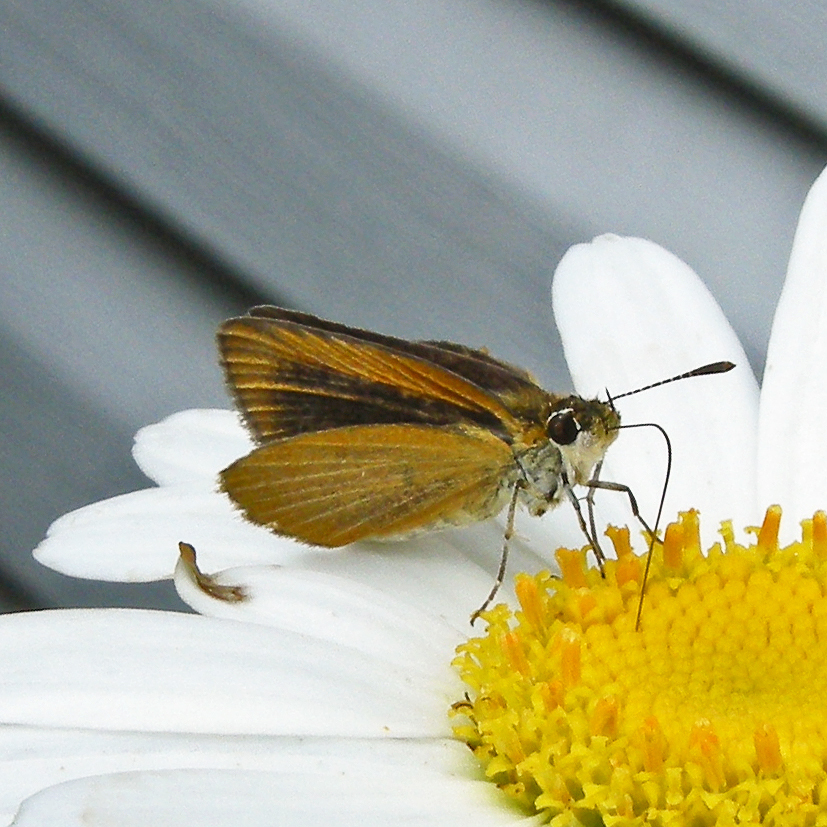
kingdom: Animalia
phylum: Arthropoda
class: Insecta
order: Lepidoptera
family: Hesperiidae
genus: Ancyloxypha
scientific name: Ancyloxypha numitor
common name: Least skipper
